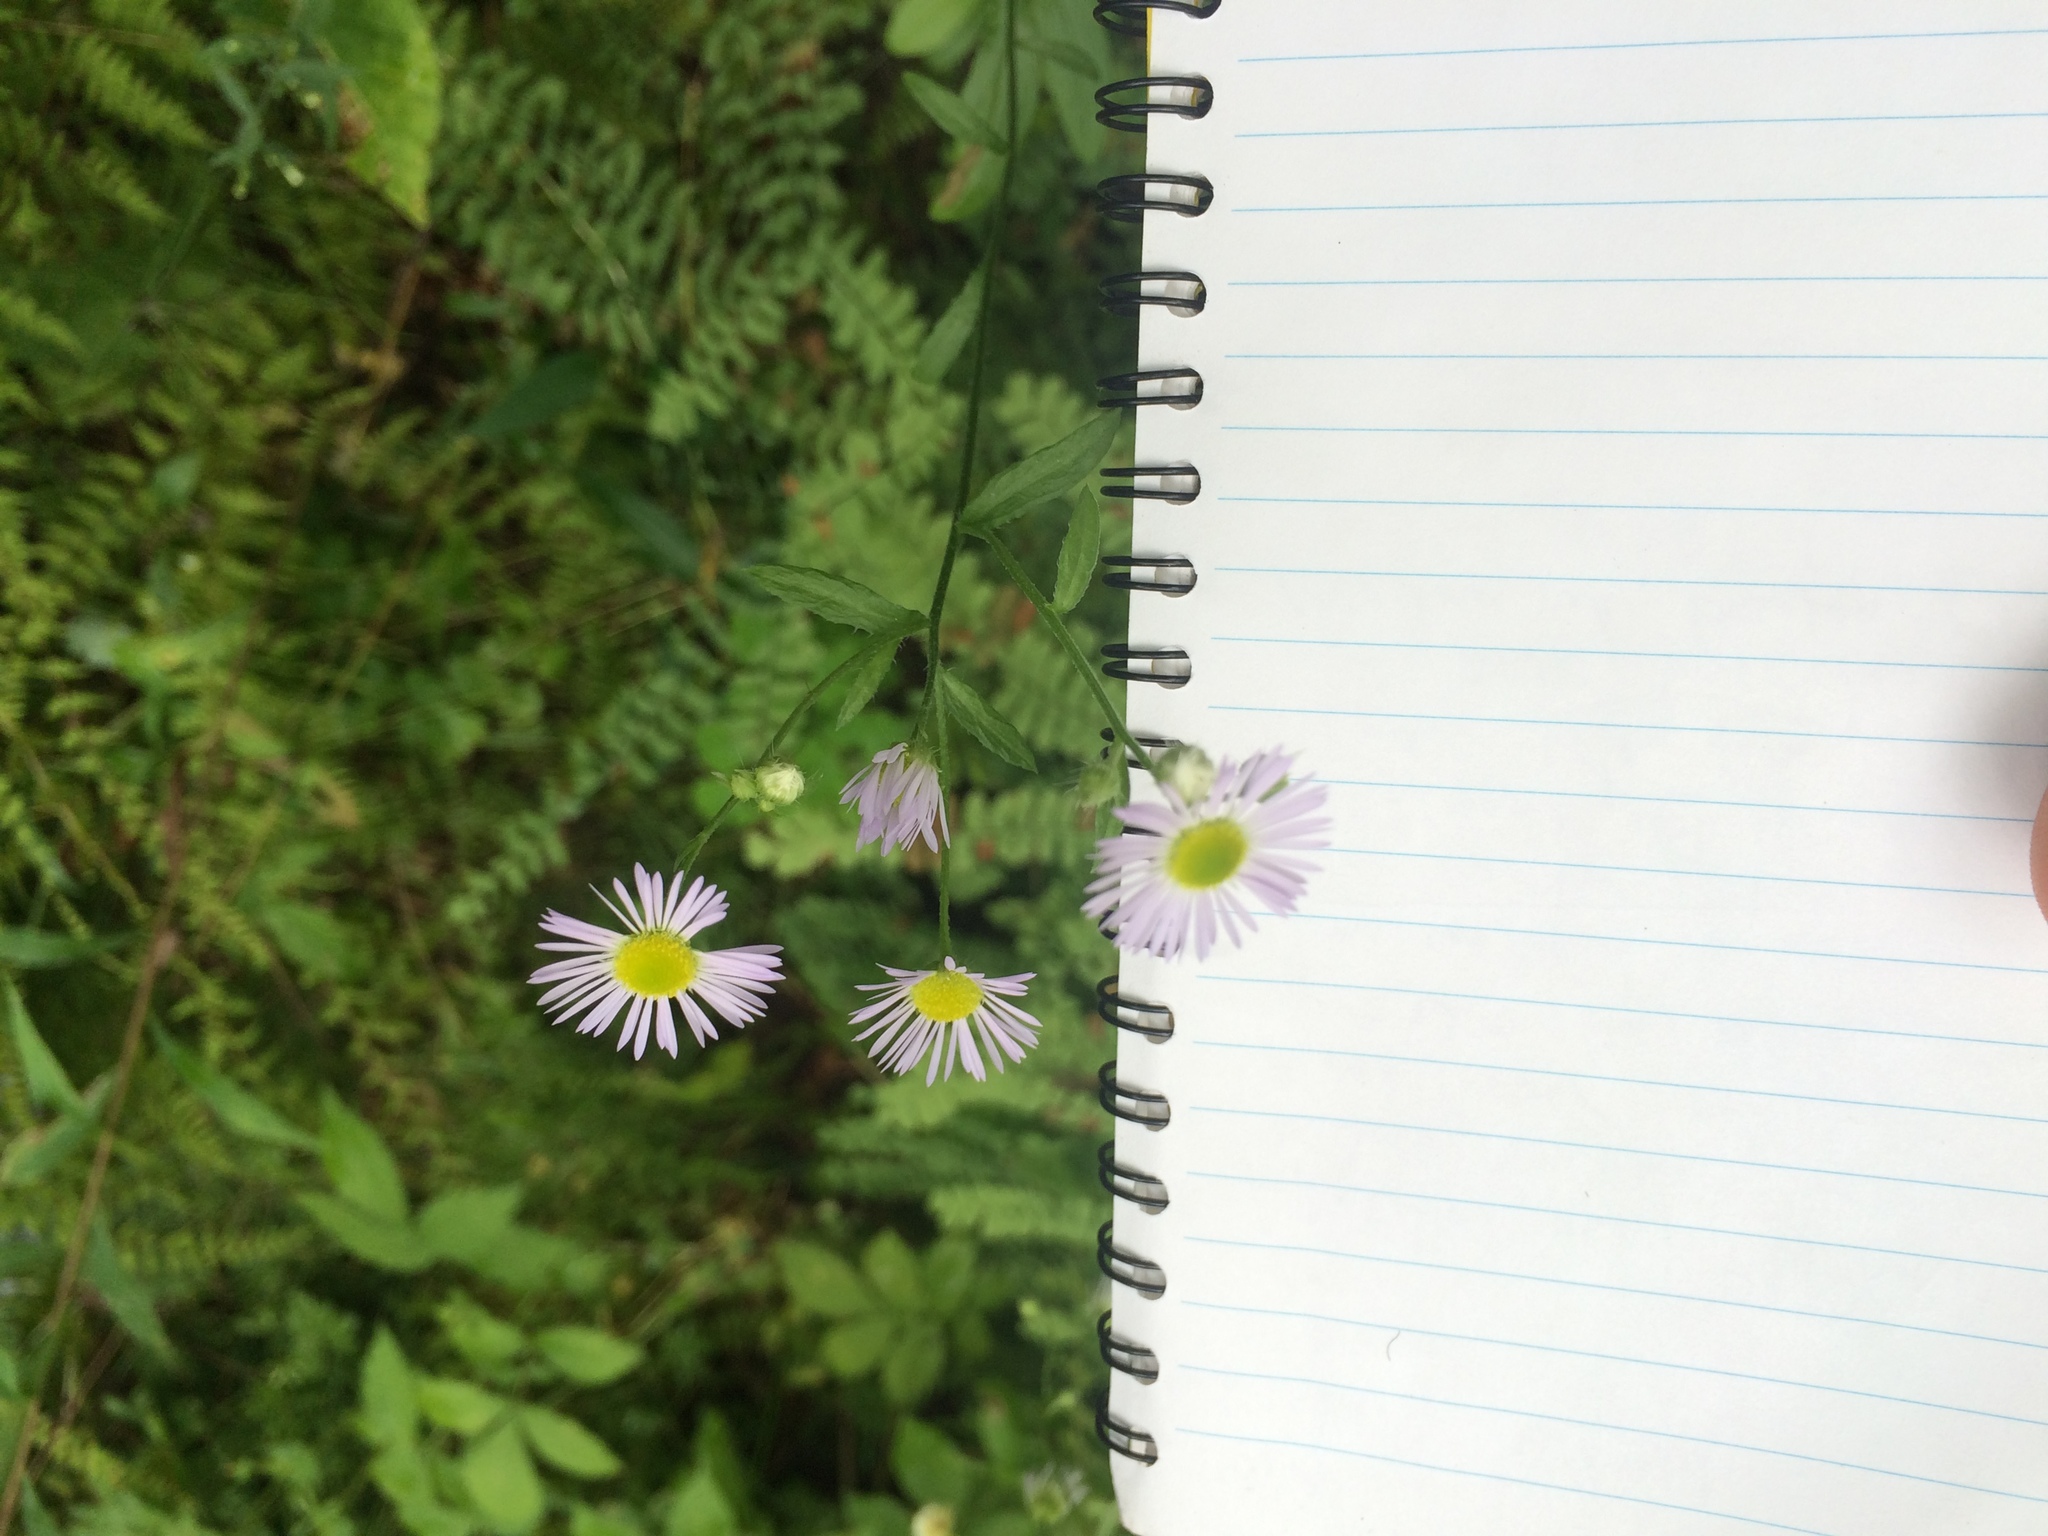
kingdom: Plantae
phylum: Tracheophyta
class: Magnoliopsida
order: Asterales
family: Asteraceae
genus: Erigeron
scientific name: Erigeron annuus
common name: Tall fleabane
